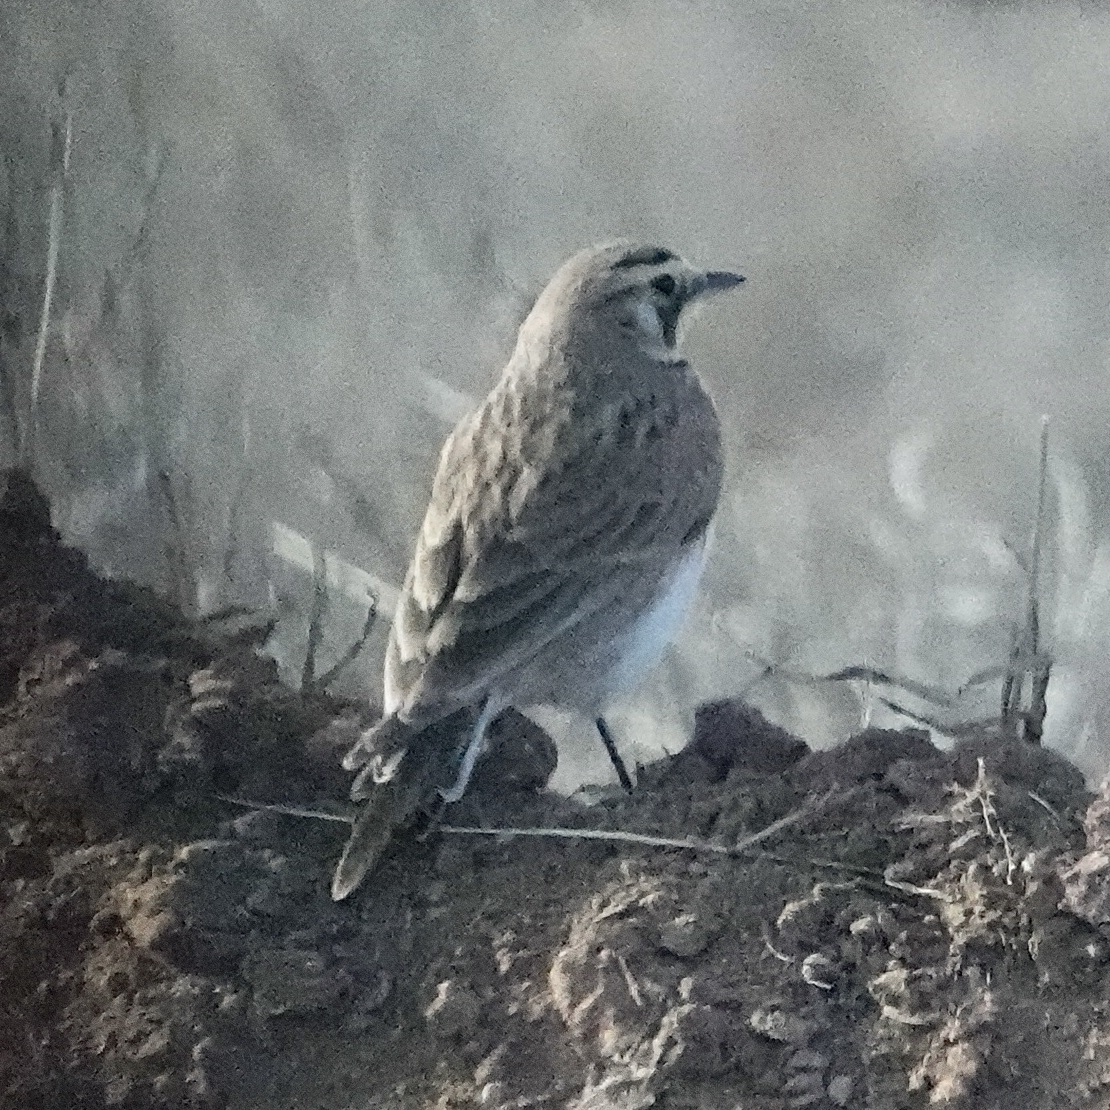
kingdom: Animalia
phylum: Chordata
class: Aves
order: Passeriformes
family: Alaudidae
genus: Eremophila
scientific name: Eremophila alpestris
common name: Horned lark
